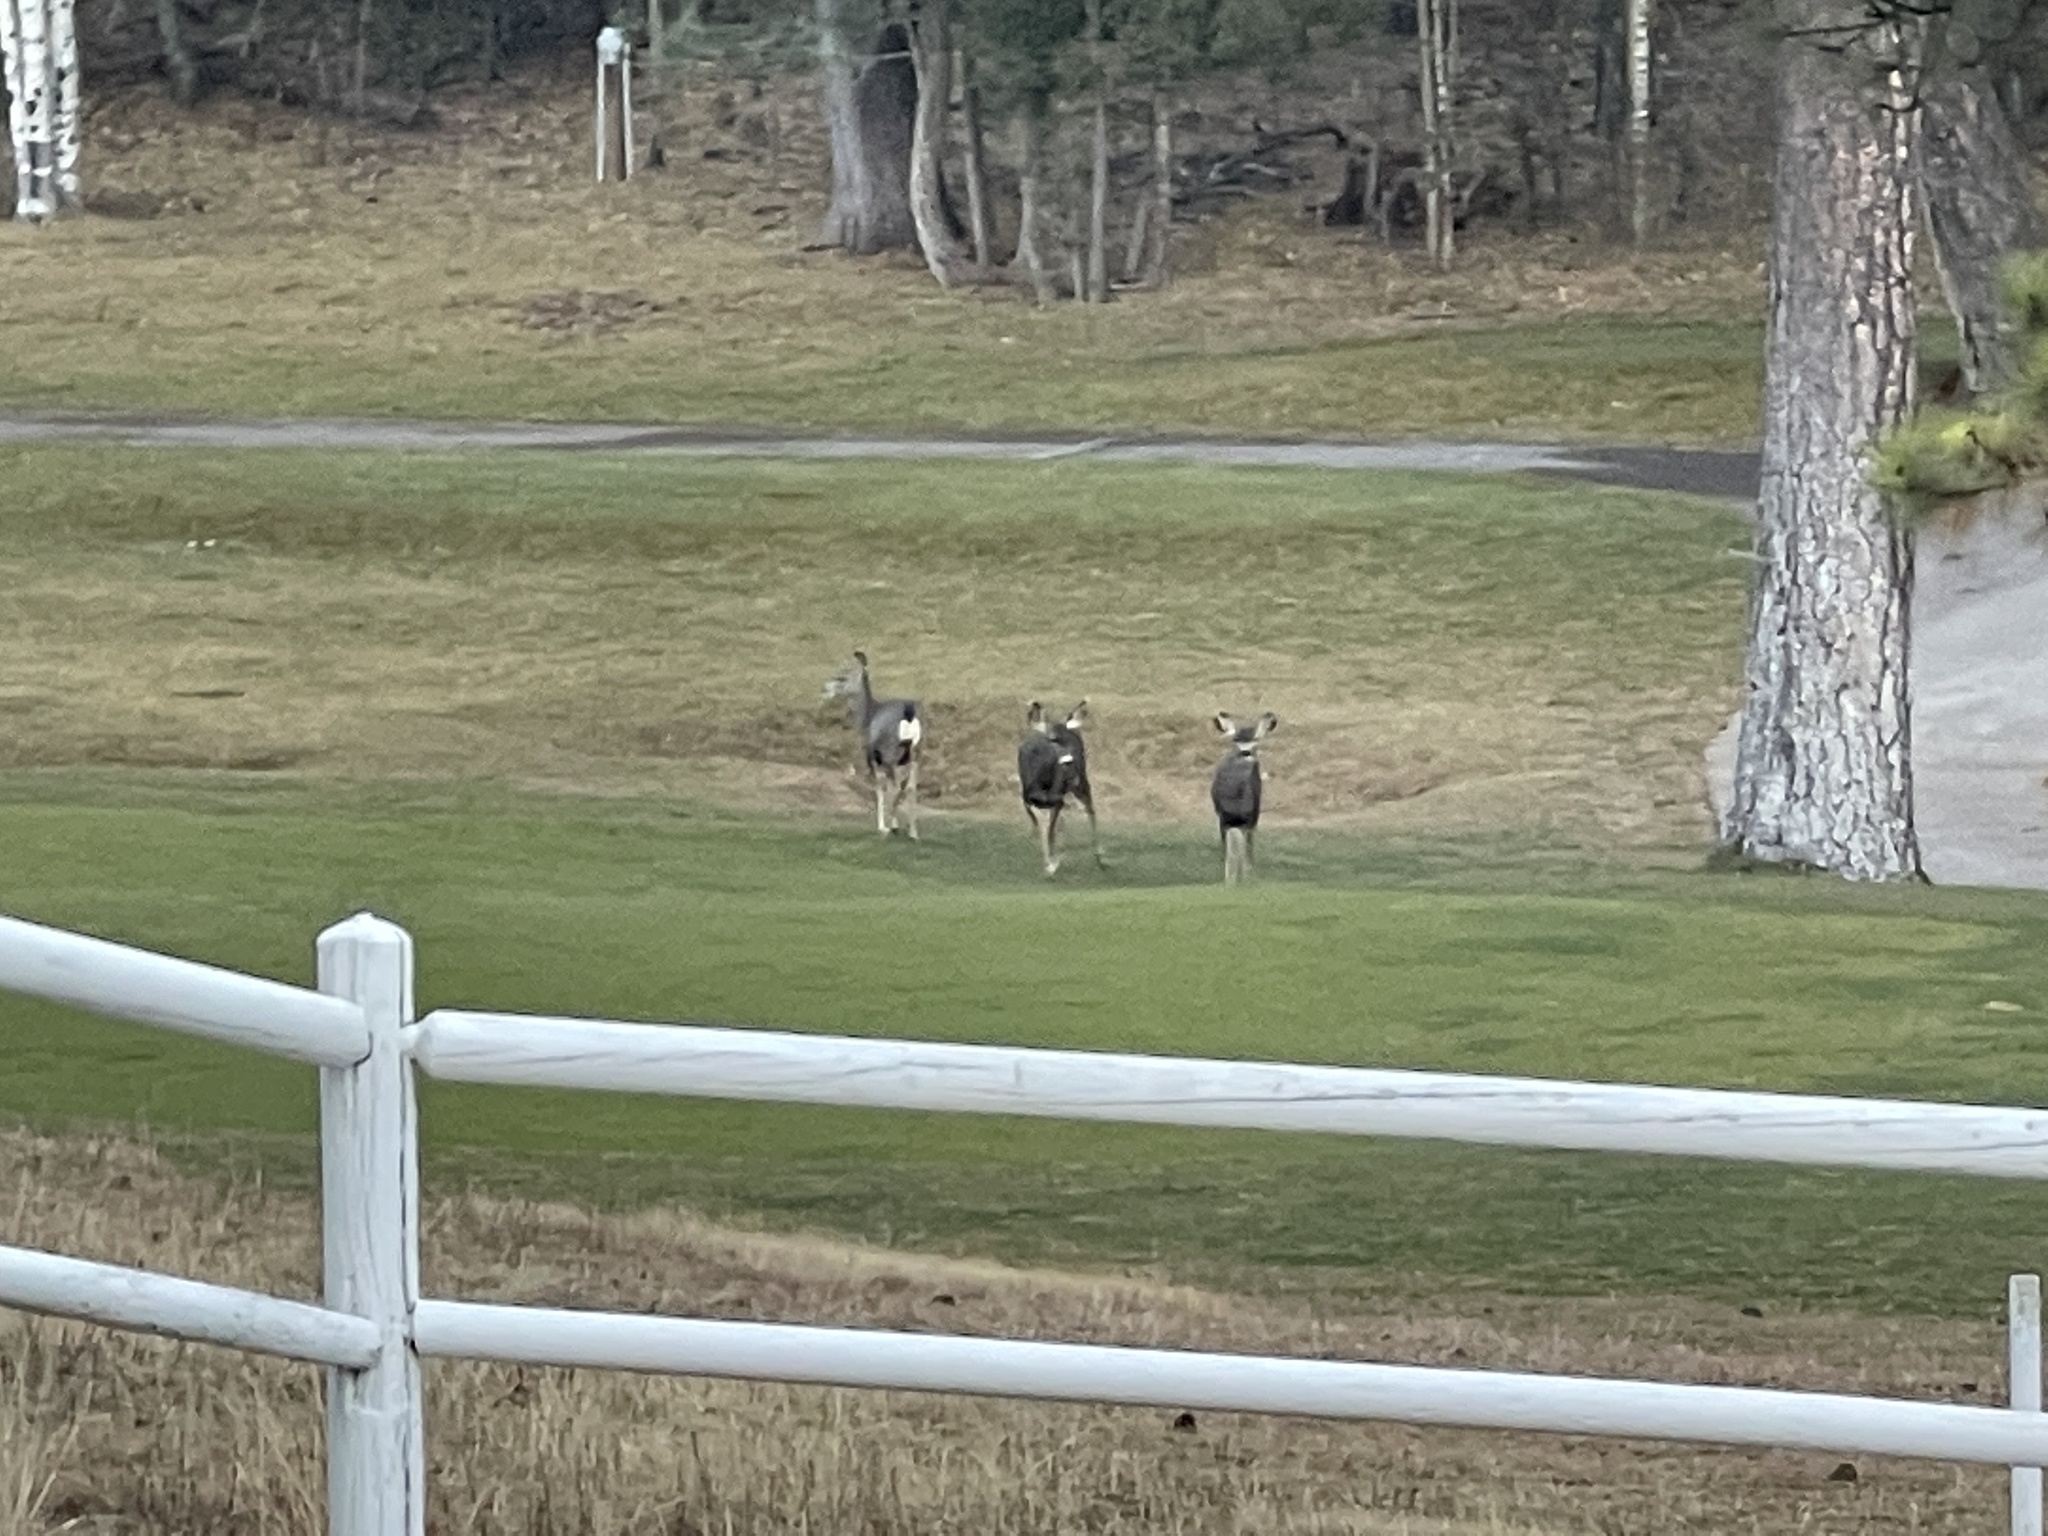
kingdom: Animalia
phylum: Chordata
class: Mammalia
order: Artiodactyla
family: Cervidae
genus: Odocoileus
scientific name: Odocoileus hemionus
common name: Mule deer
